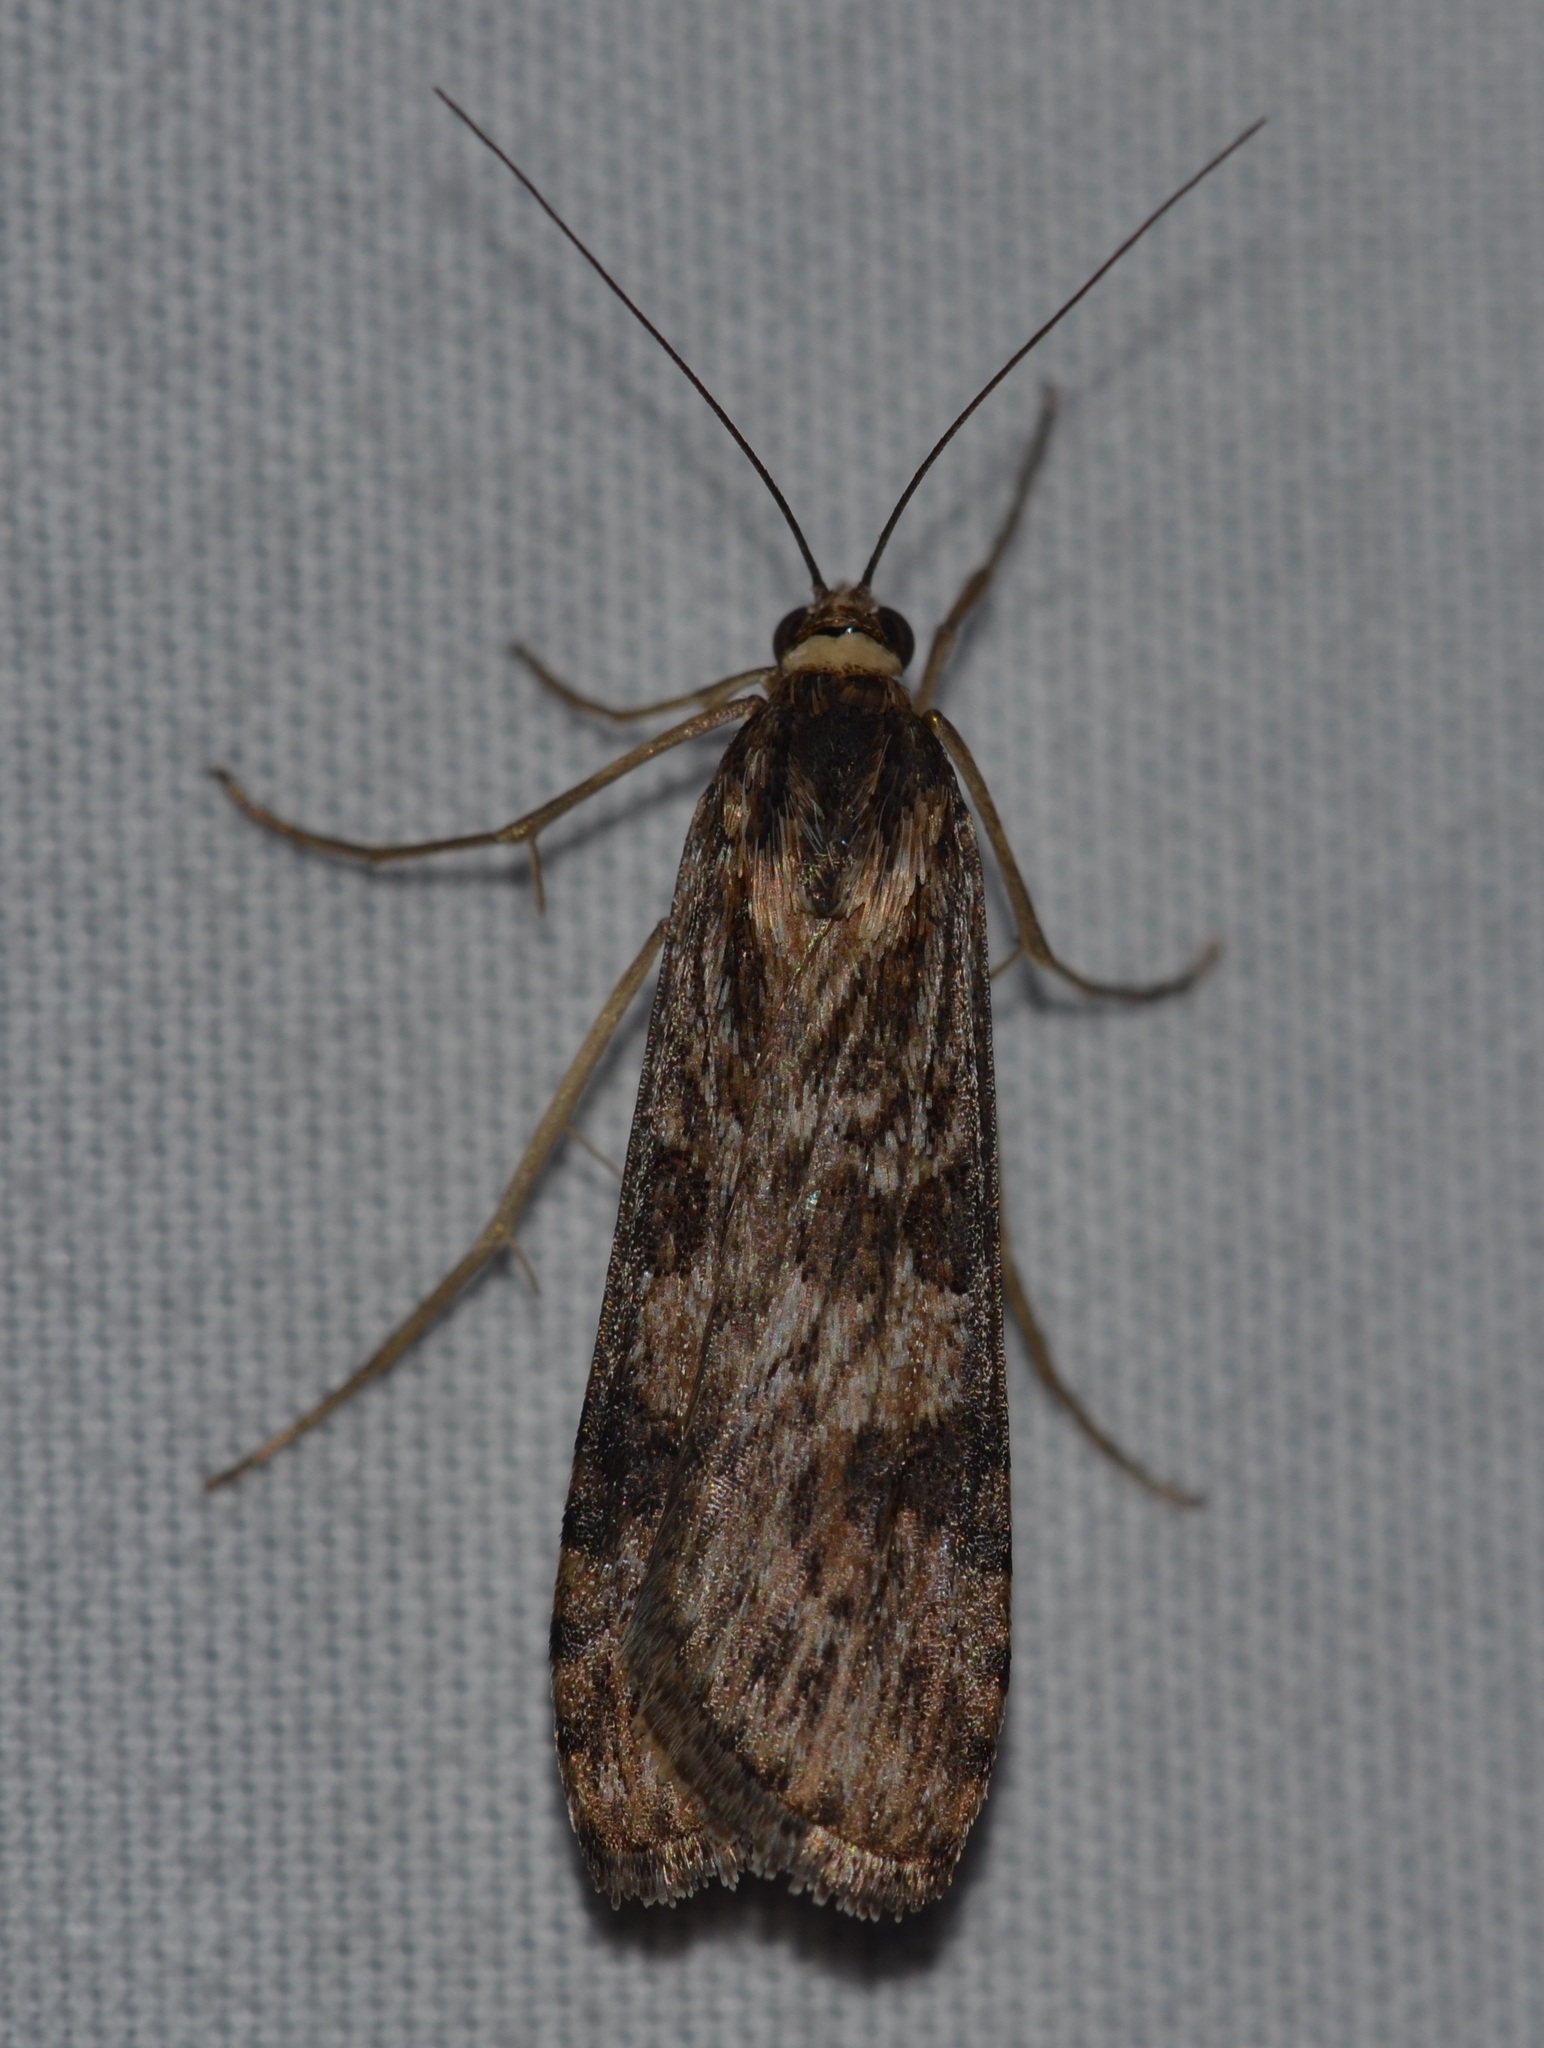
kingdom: Animalia
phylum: Arthropoda
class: Insecta
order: Lepidoptera
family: Crambidae
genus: Nomophila
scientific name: Nomophila noctuella
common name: Rush veneer
